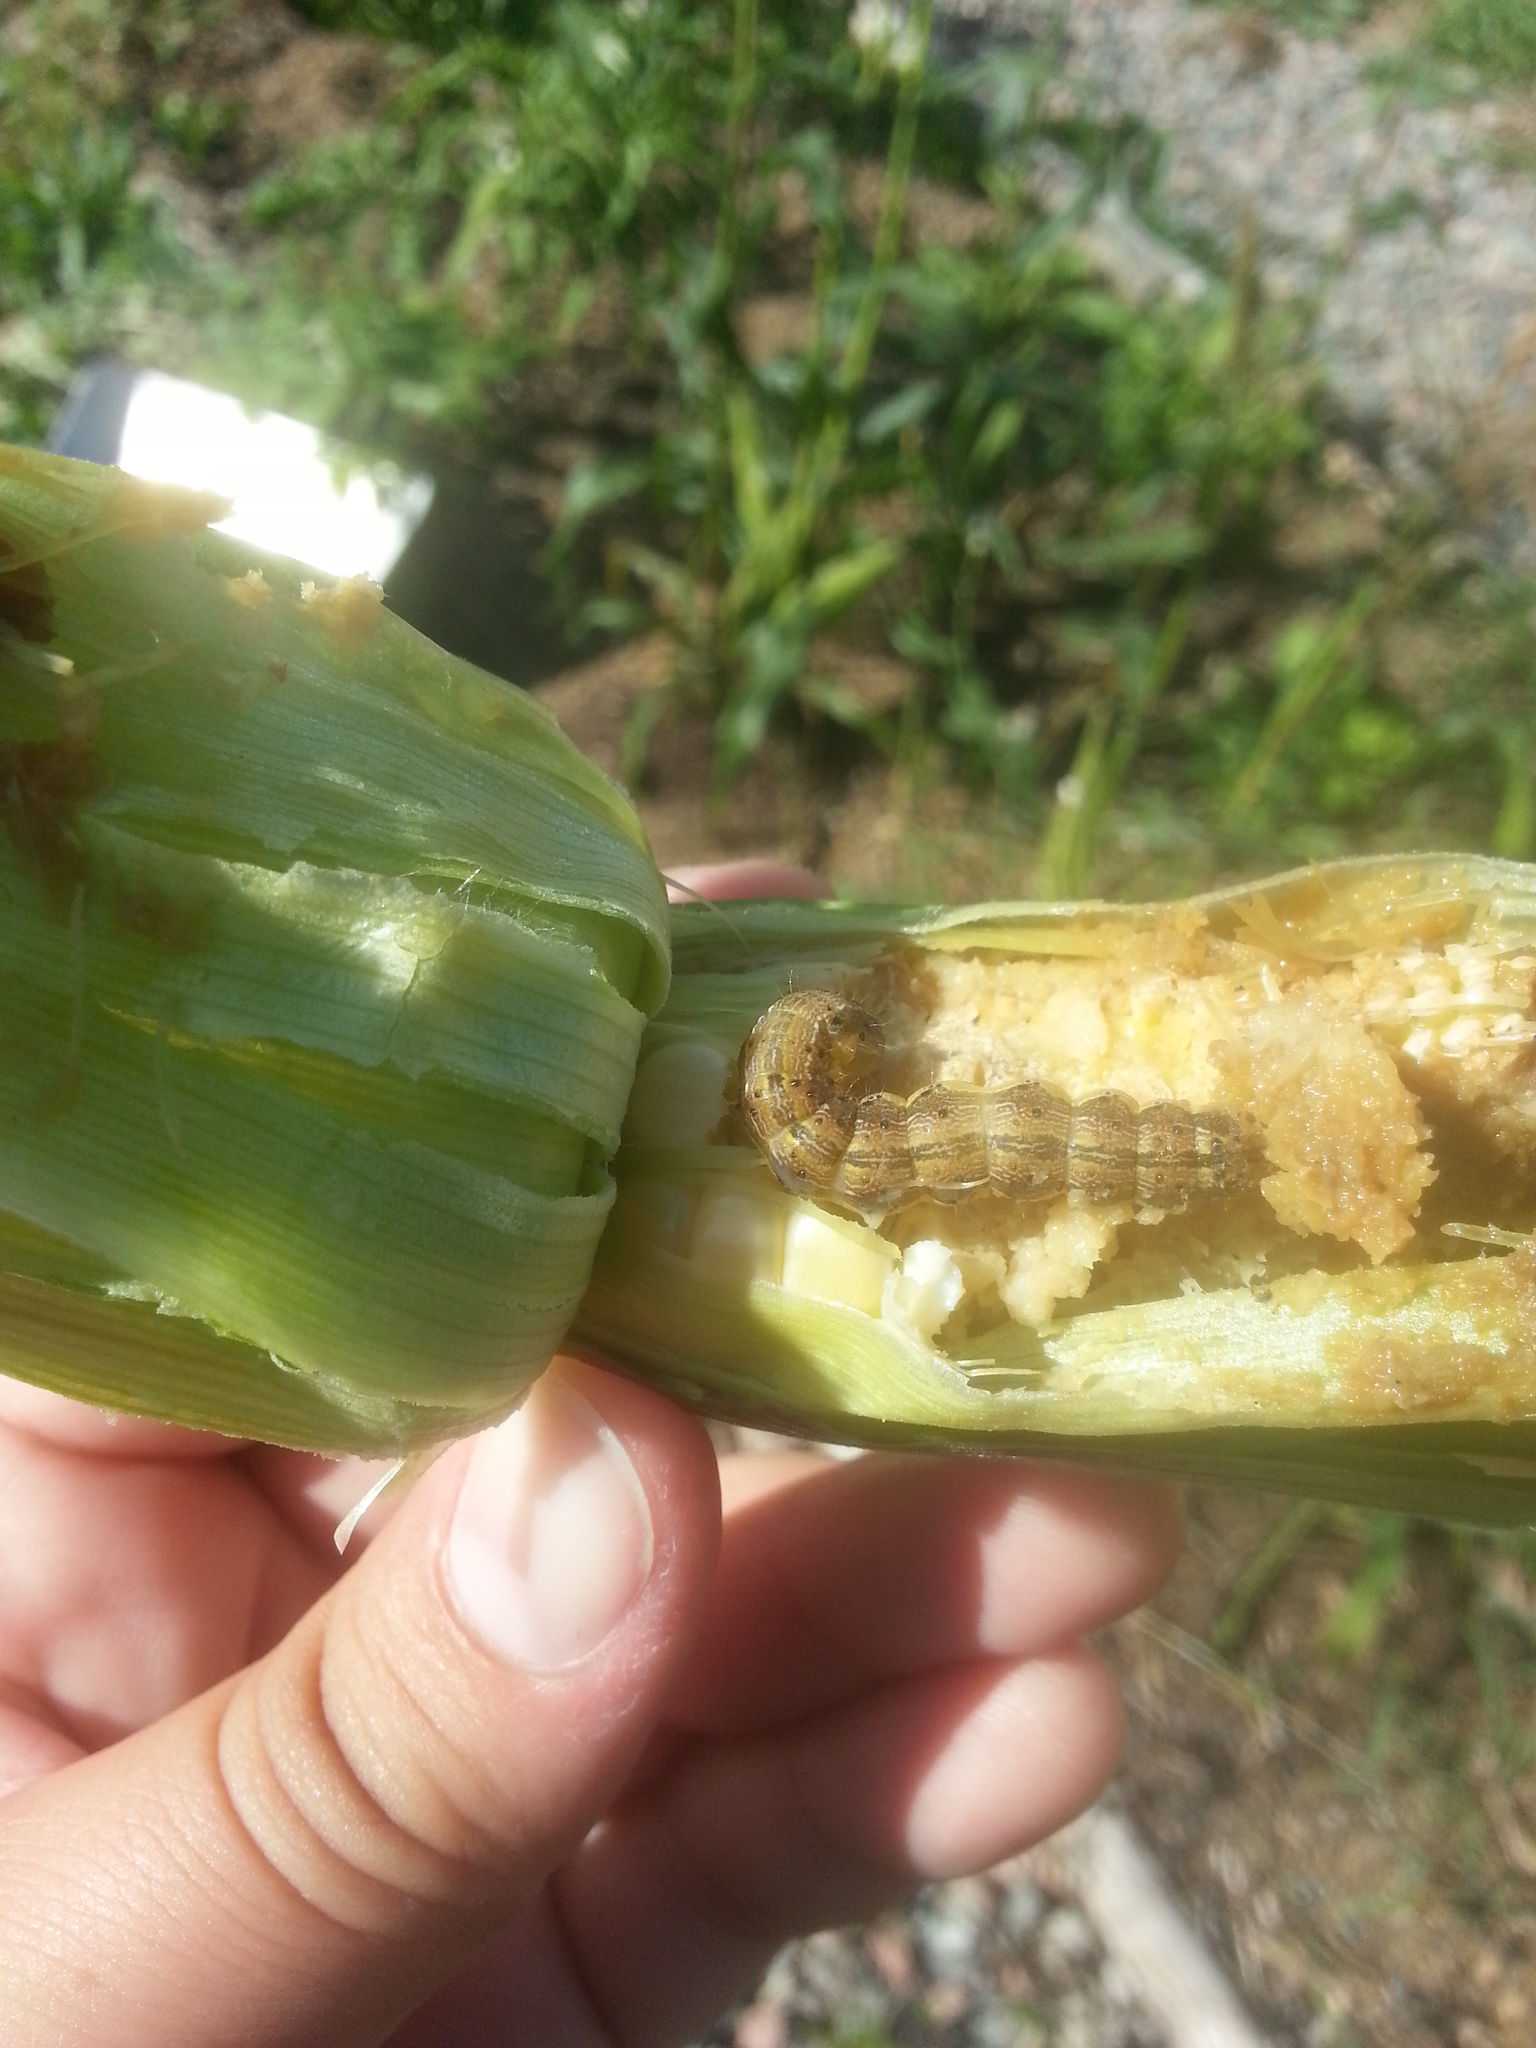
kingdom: Animalia
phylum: Arthropoda
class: Insecta
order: Lepidoptera
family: Noctuidae
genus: Helicoverpa
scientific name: Helicoverpa zea
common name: Bollworm
